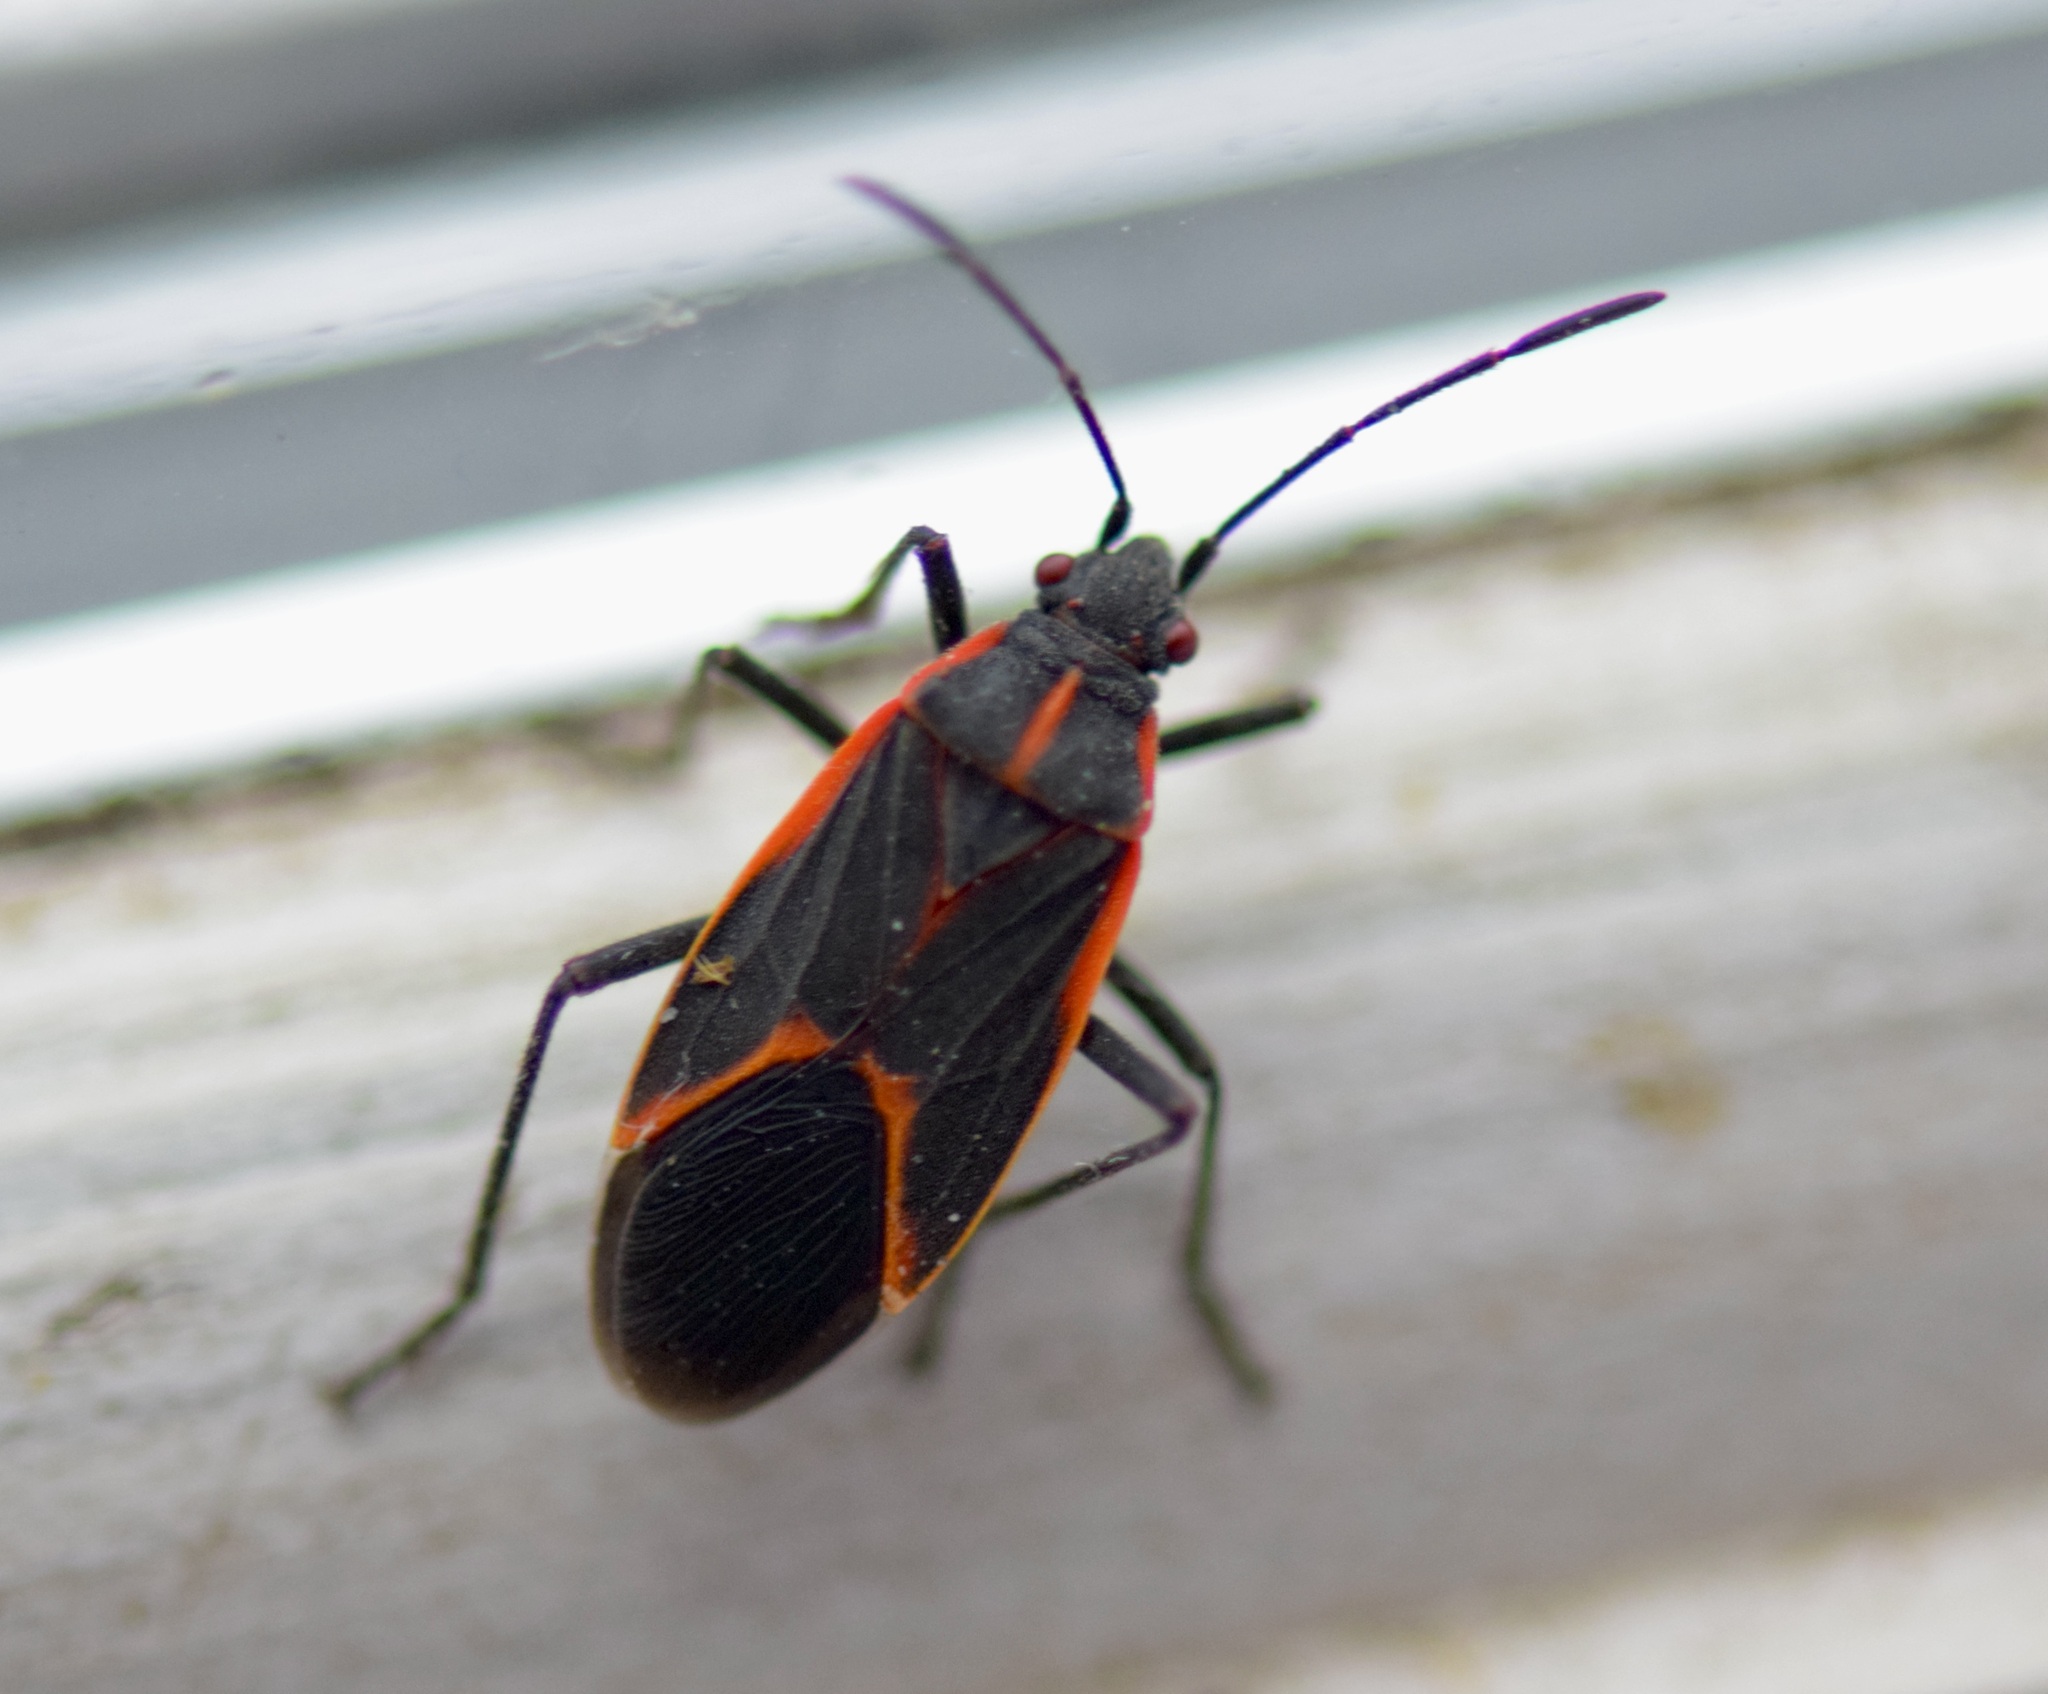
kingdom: Animalia
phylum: Arthropoda
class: Insecta
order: Hemiptera
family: Rhopalidae
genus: Boisea
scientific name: Boisea trivittata
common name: Boxelder bug
